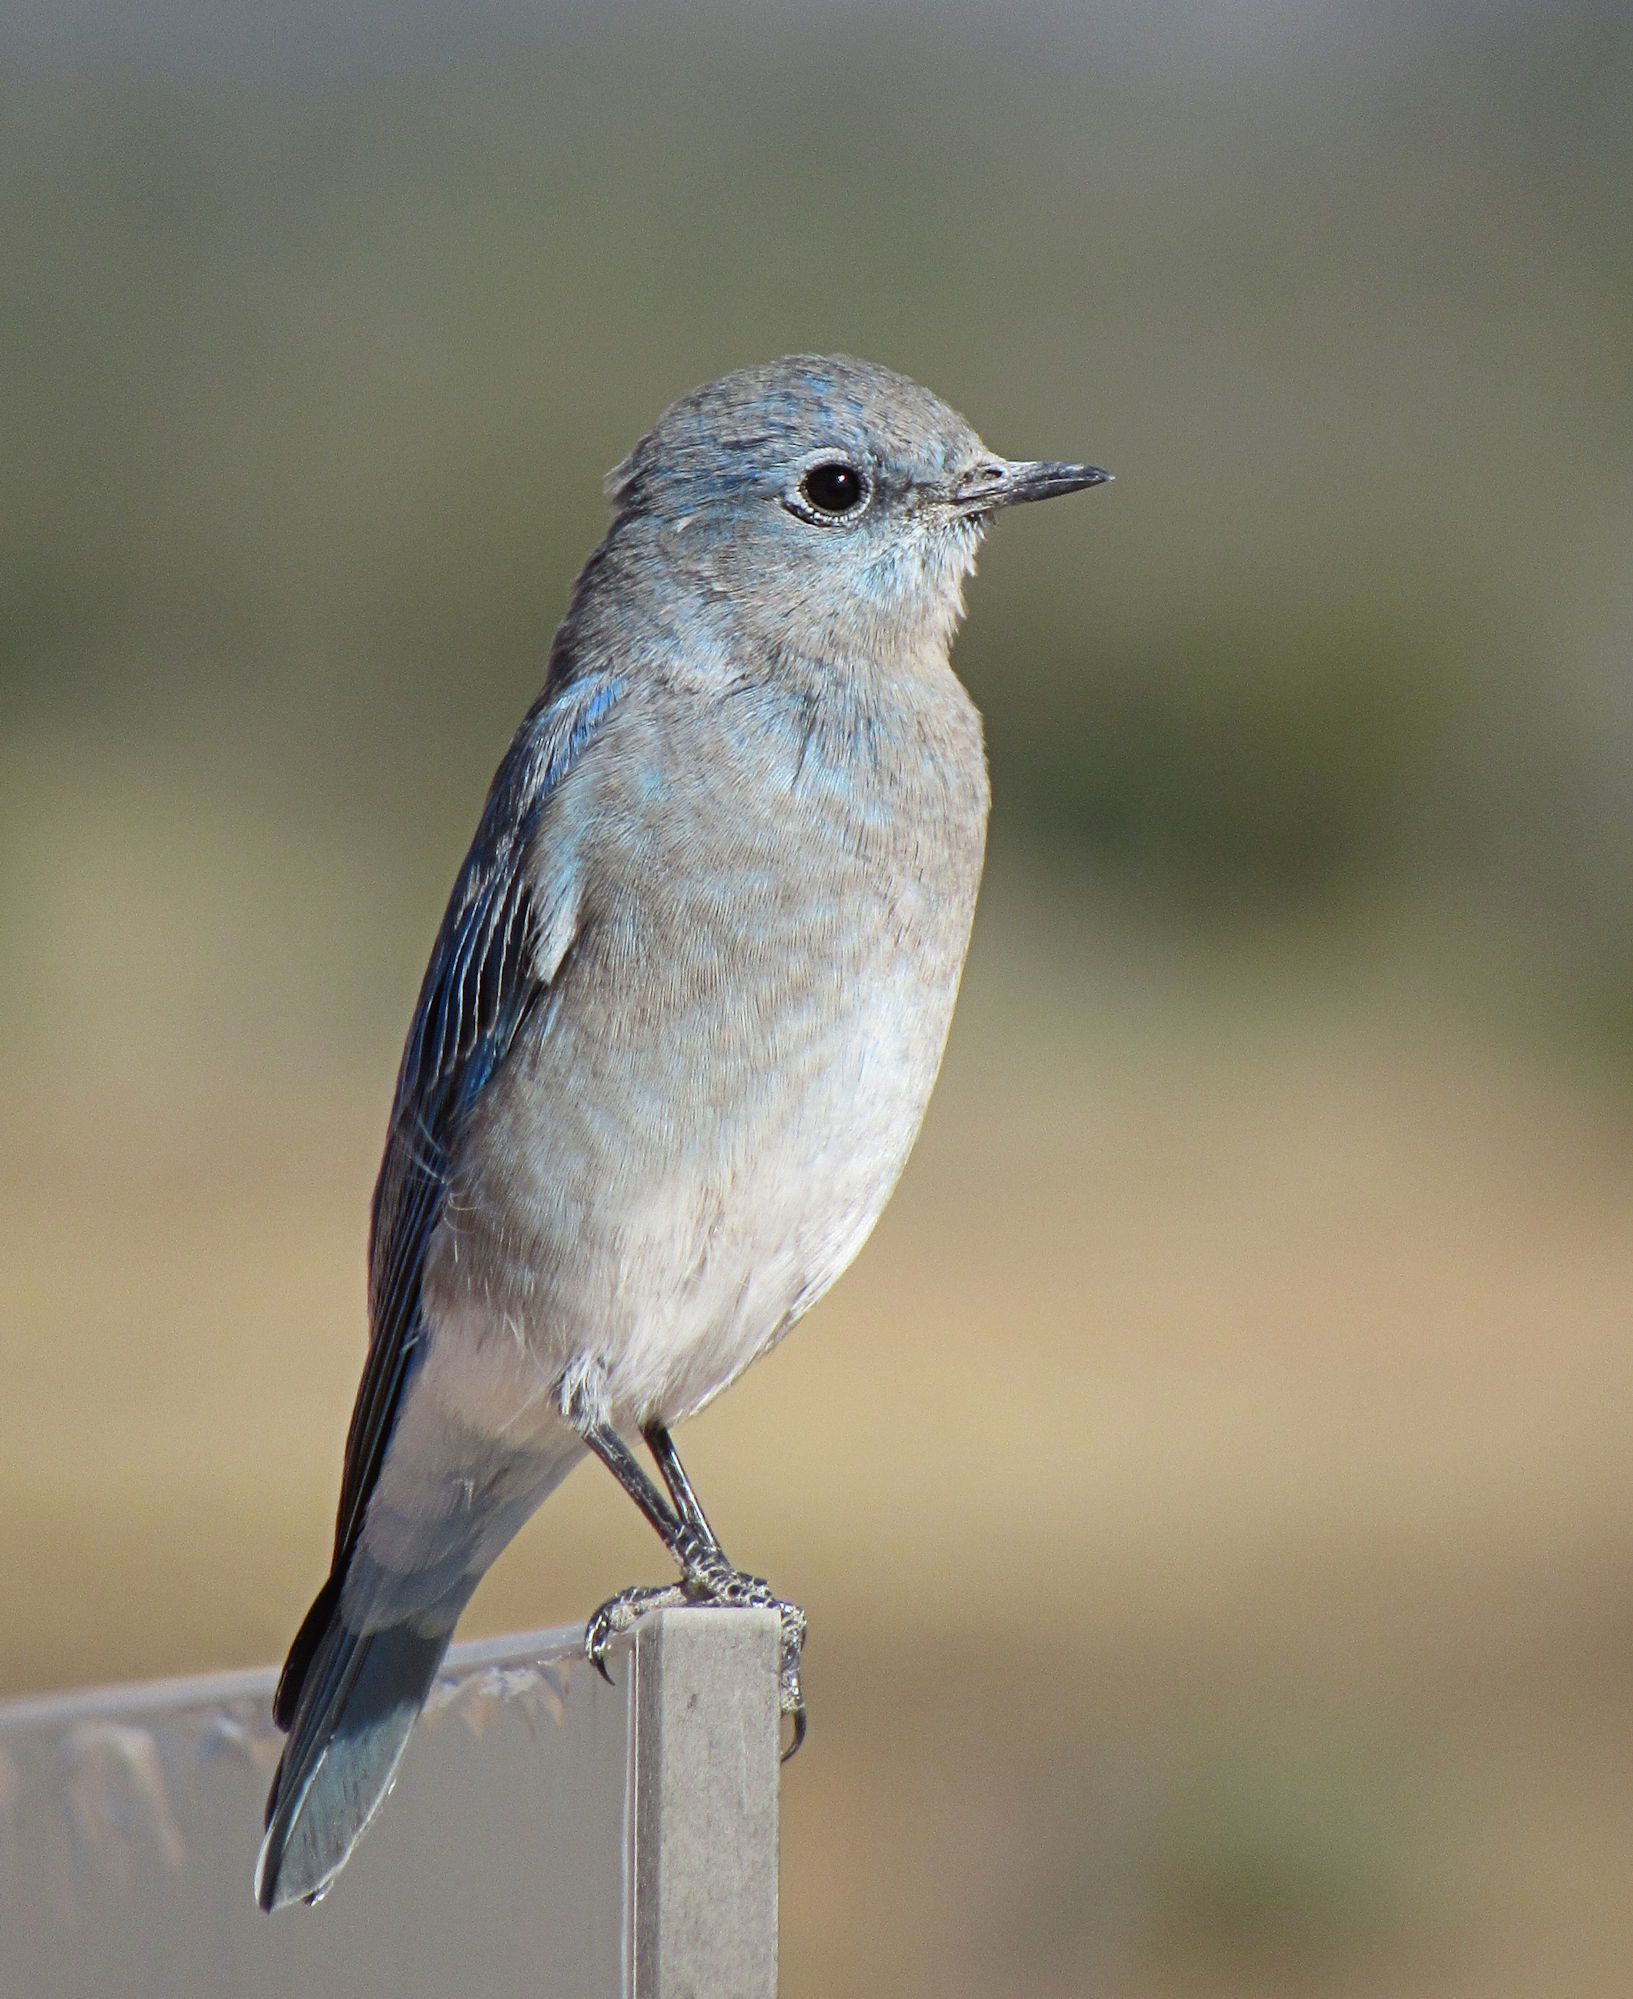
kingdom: Animalia
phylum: Chordata
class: Aves
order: Passeriformes
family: Turdidae
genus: Sialia
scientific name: Sialia currucoides
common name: Mountain bluebird
